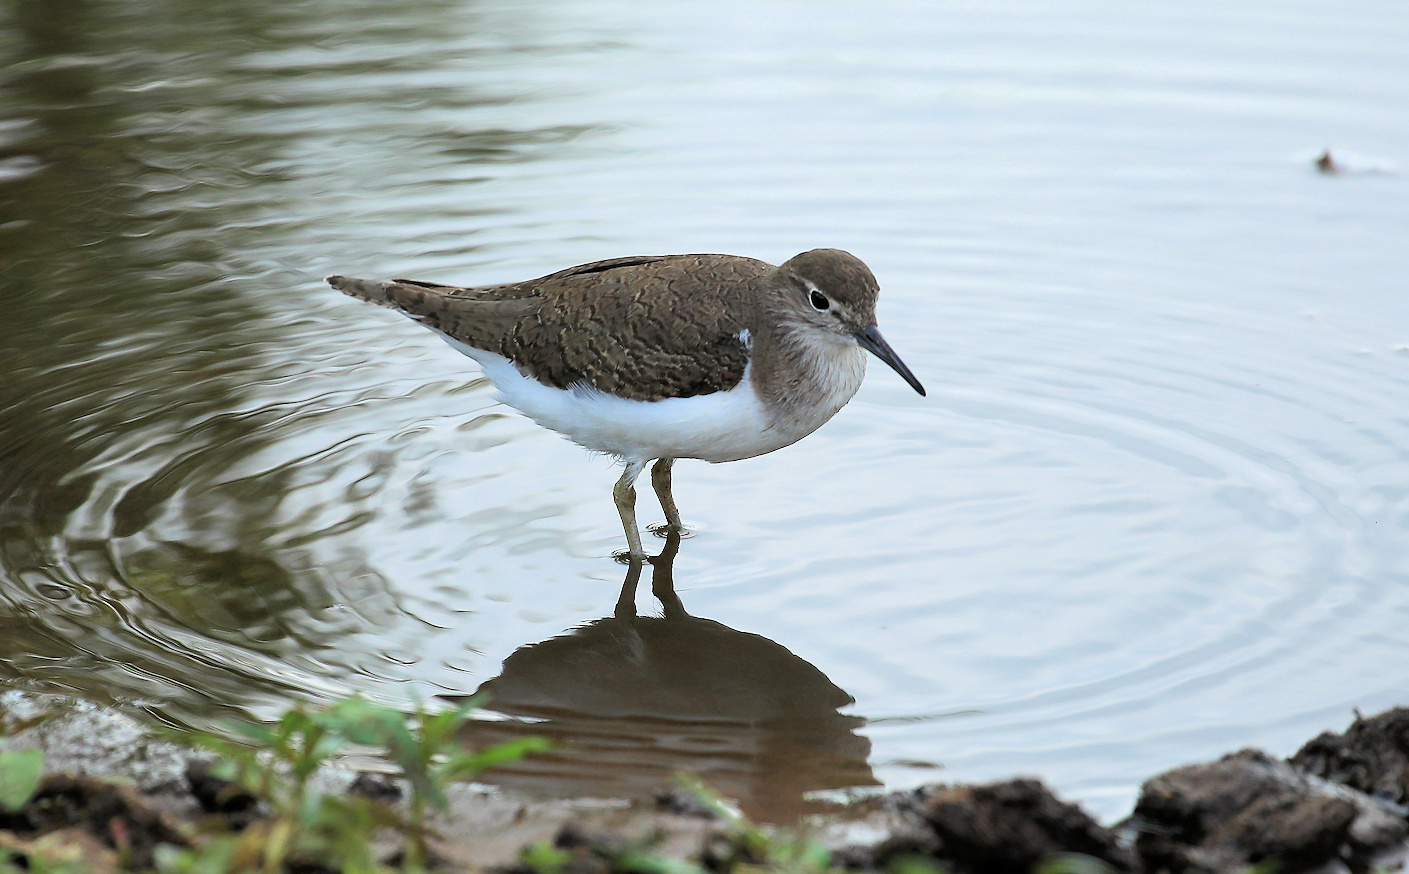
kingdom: Animalia
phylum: Chordata
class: Aves
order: Charadriiformes
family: Scolopacidae
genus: Actitis
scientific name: Actitis hypoleucos
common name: Common sandpiper
